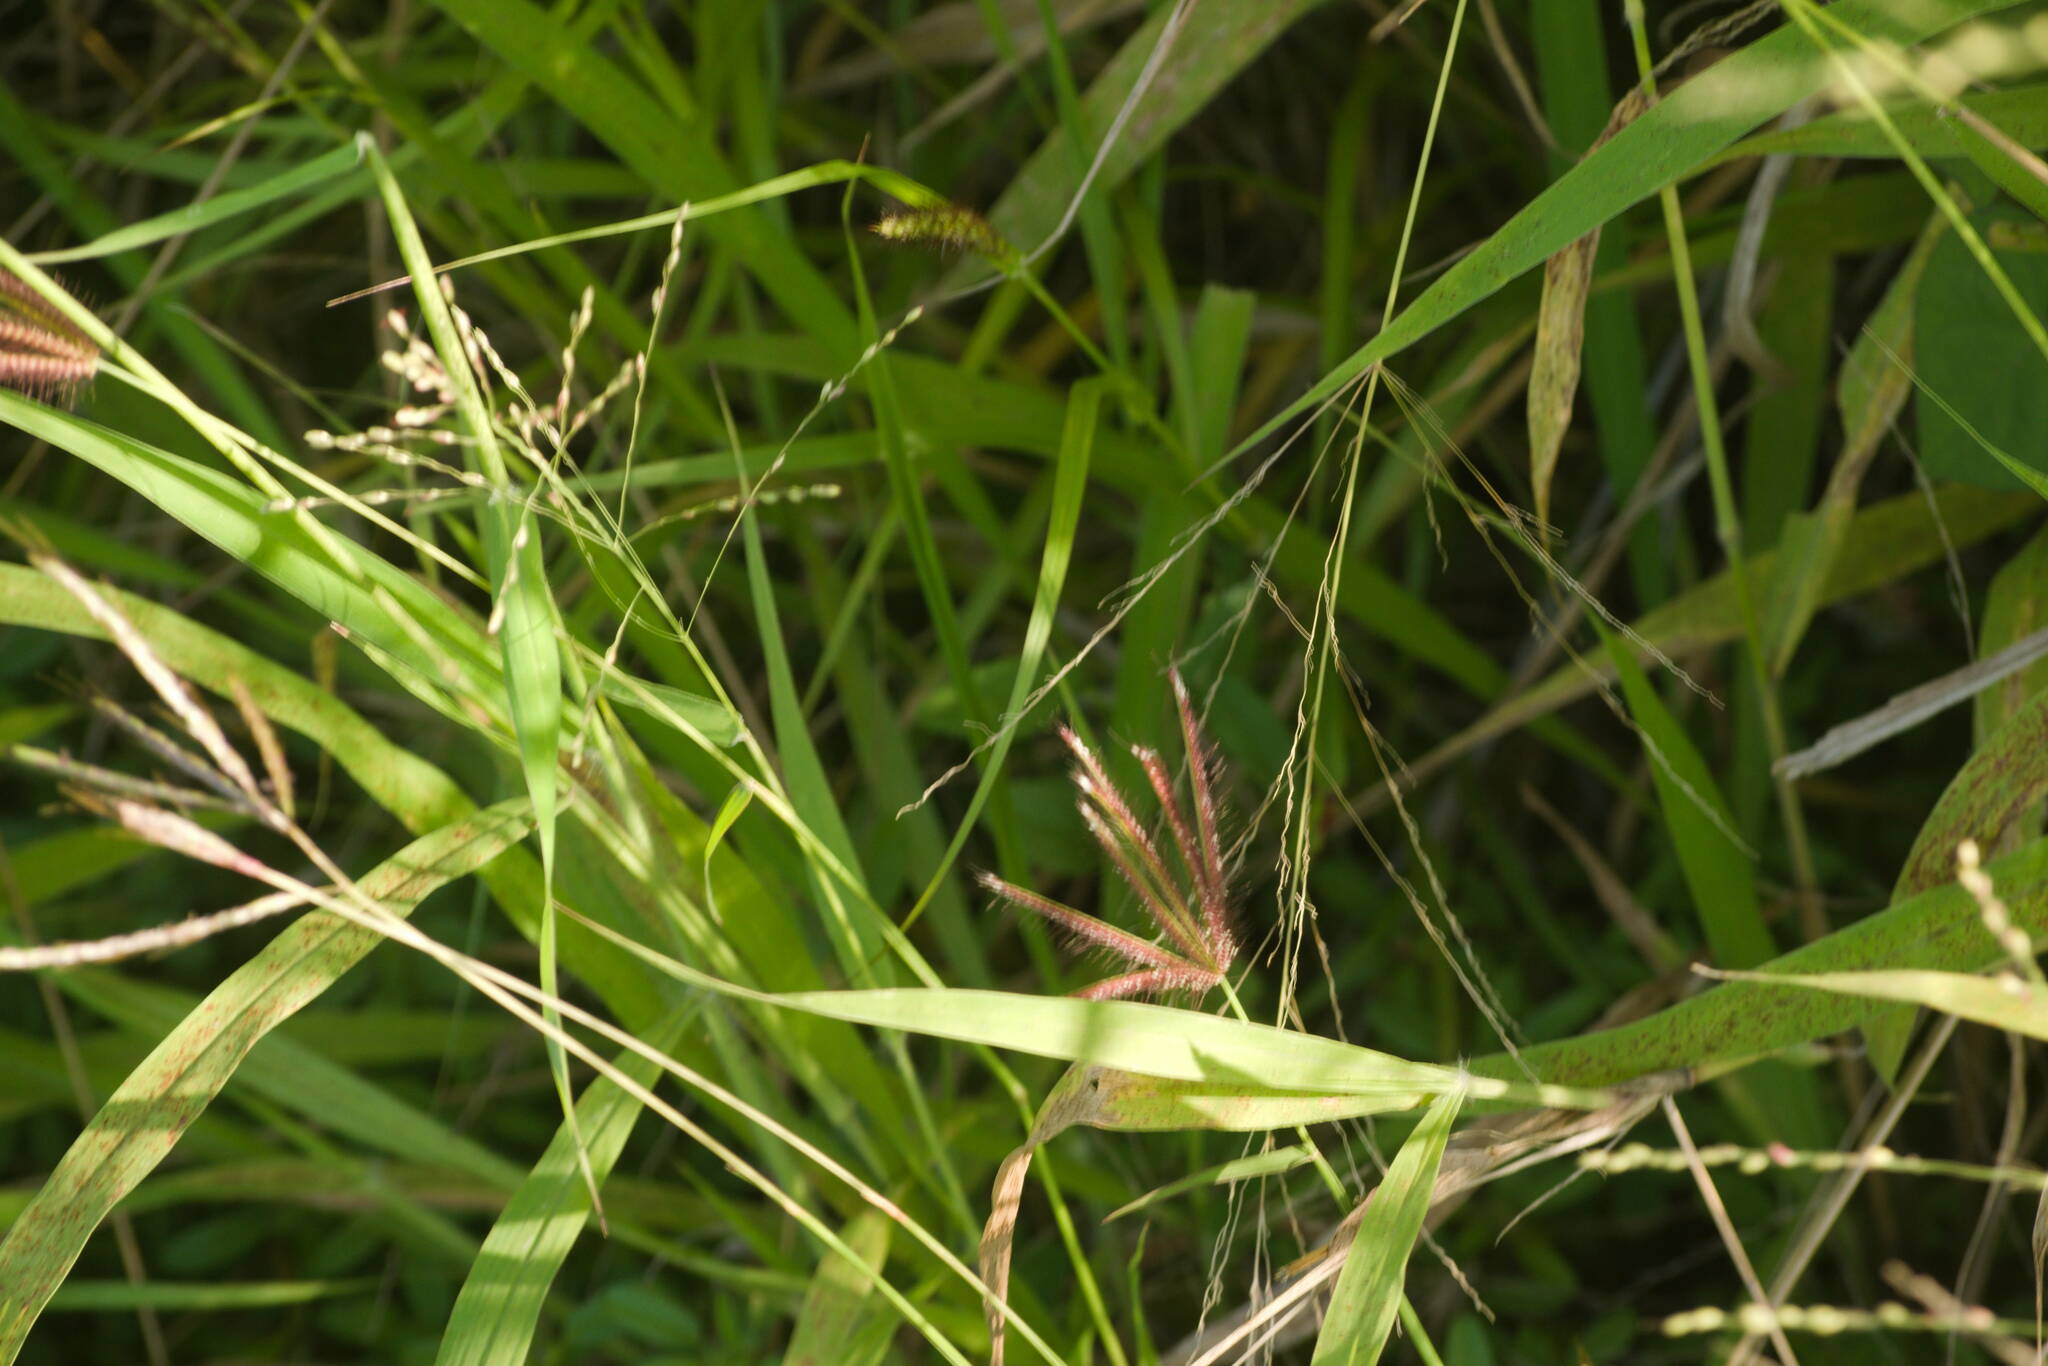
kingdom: Plantae
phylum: Tracheophyta
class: Liliopsida
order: Poales
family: Poaceae
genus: Chloris
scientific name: Chloris barbata
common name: Swollen fingergrass
